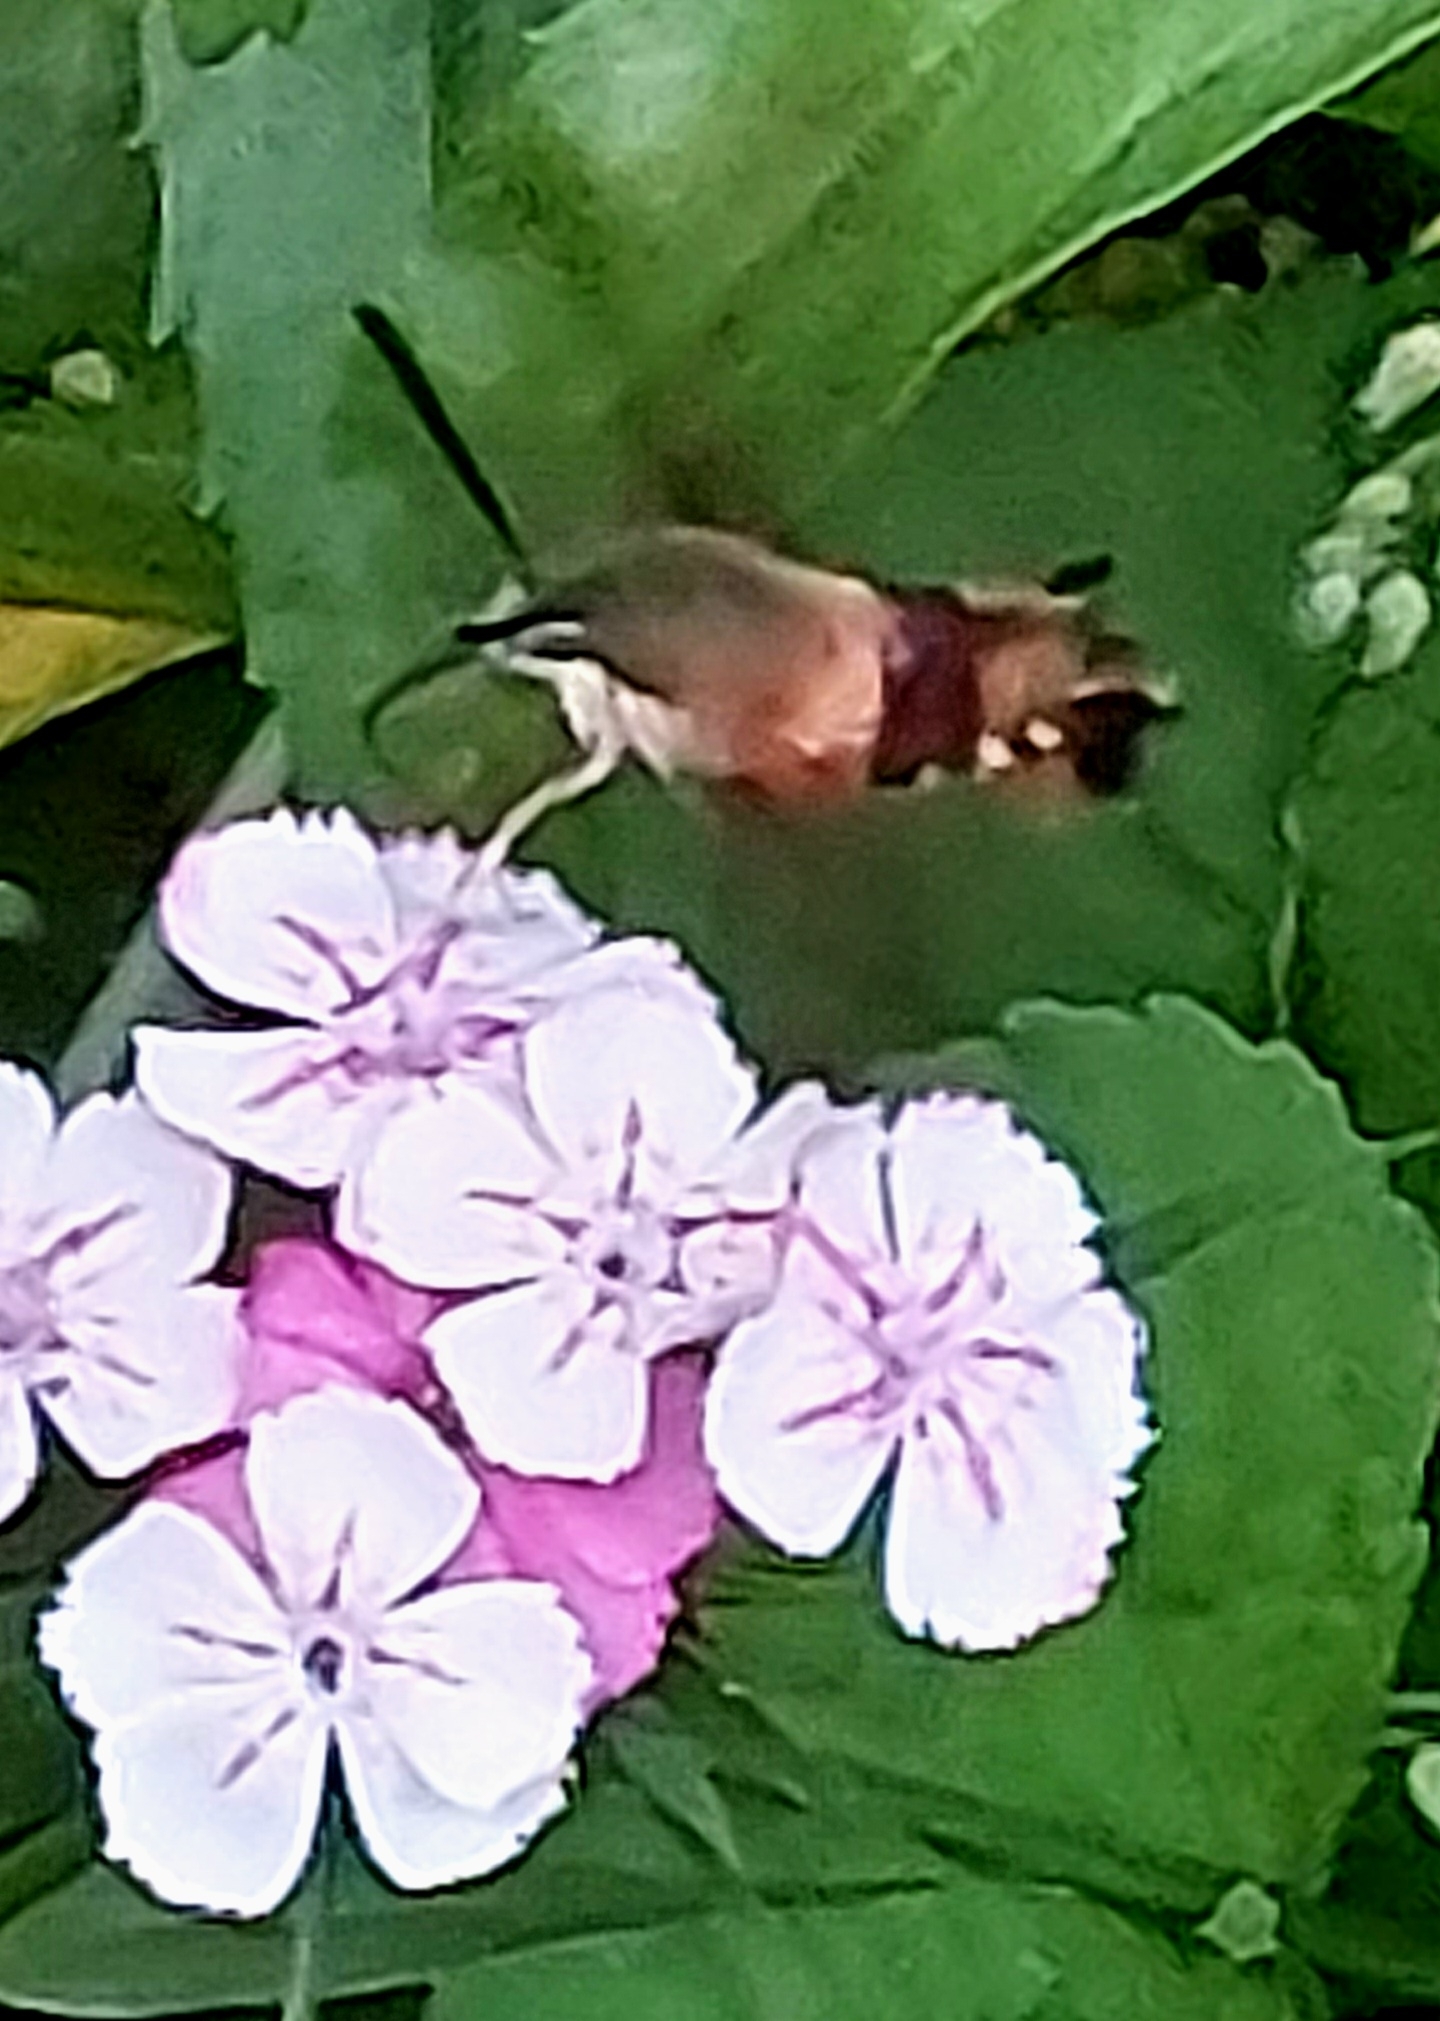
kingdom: Animalia
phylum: Arthropoda
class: Insecta
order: Lepidoptera
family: Sphingidae
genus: Hemaris
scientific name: Hemaris thysbe
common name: Common clear-wing
